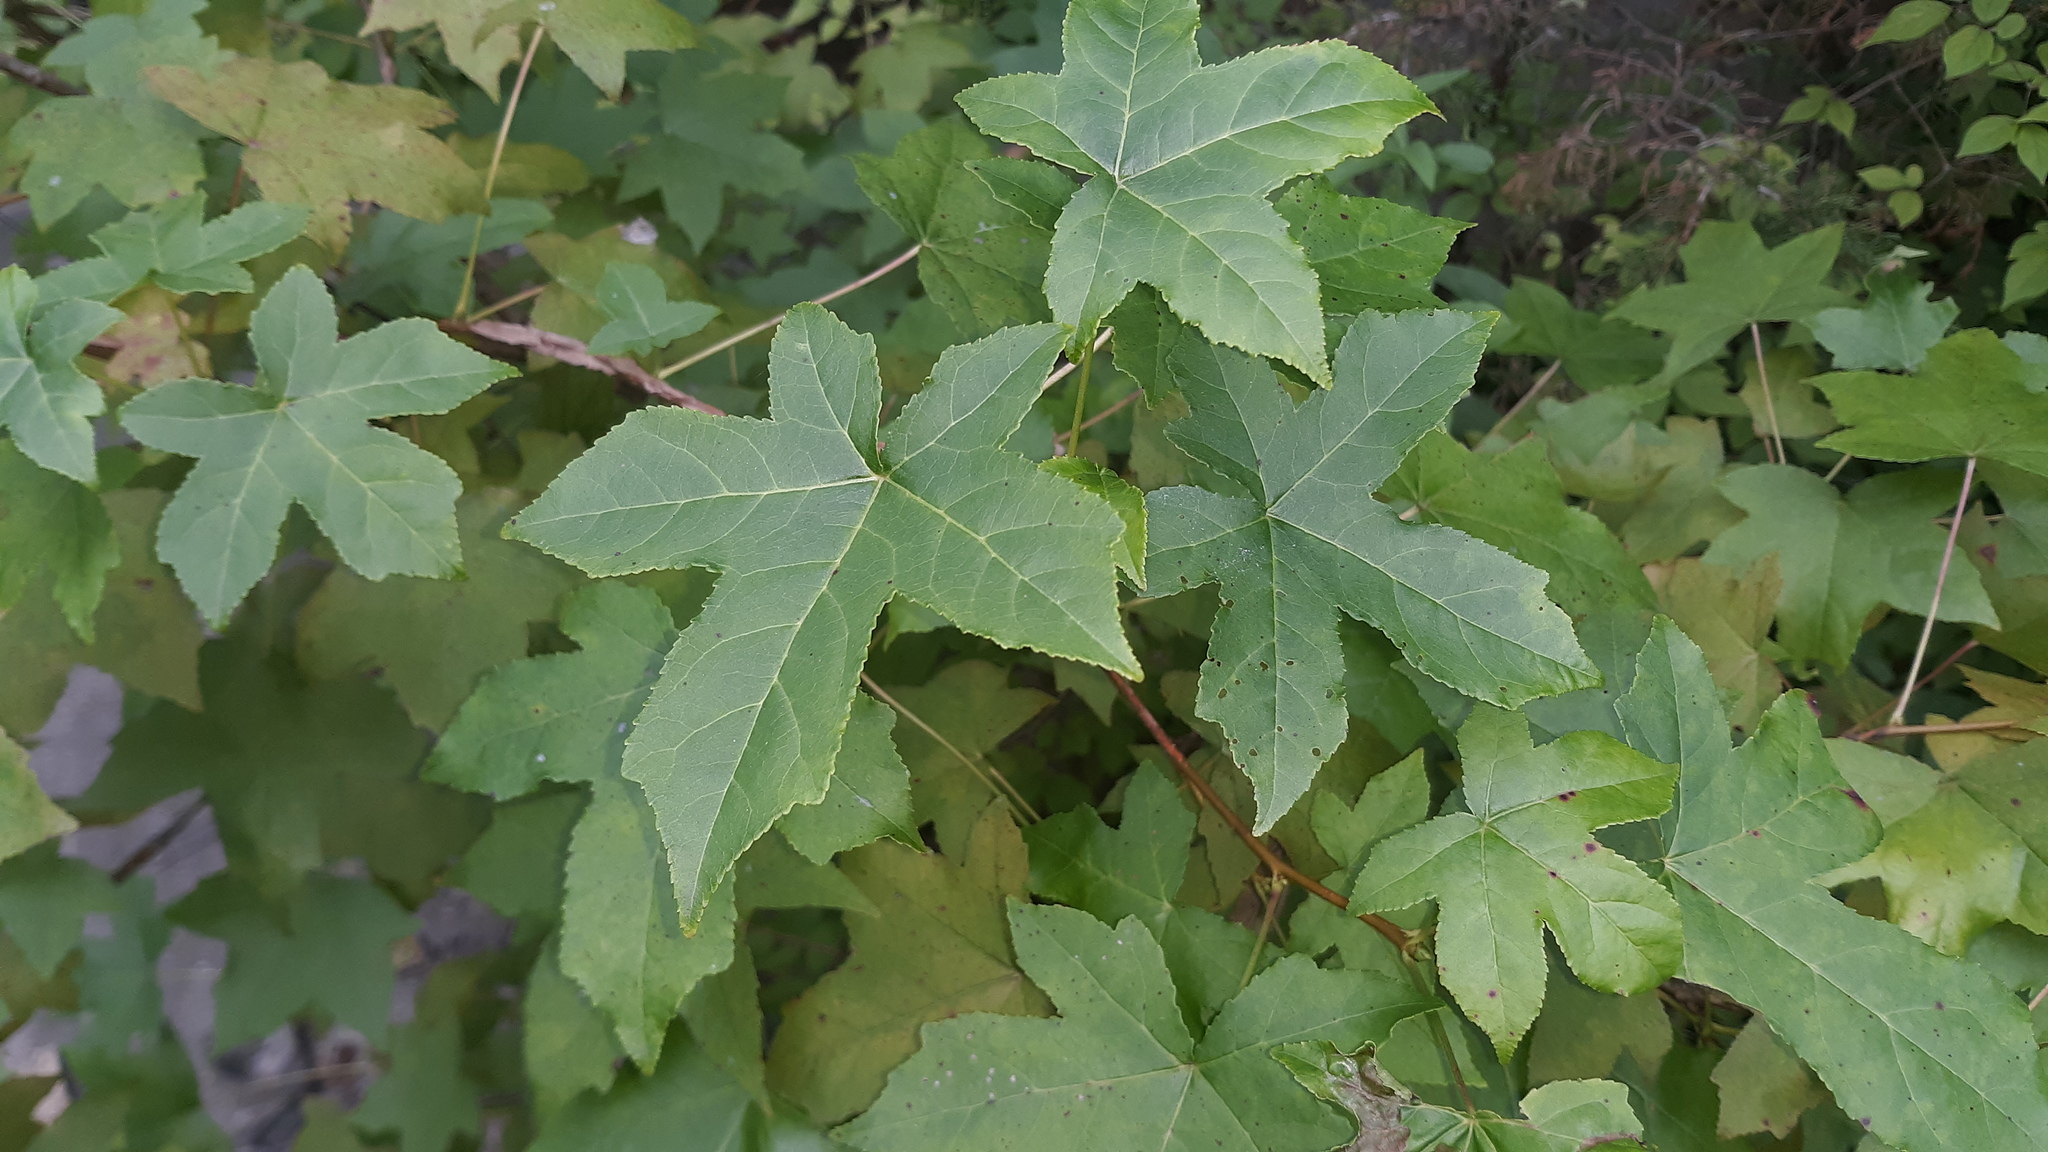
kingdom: Plantae
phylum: Tracheophyta
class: Magnoliopsida
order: Saxifragales
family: Altingiaceae
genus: Liquidambar
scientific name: Liquidambar styraciflua
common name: Sweet gum
